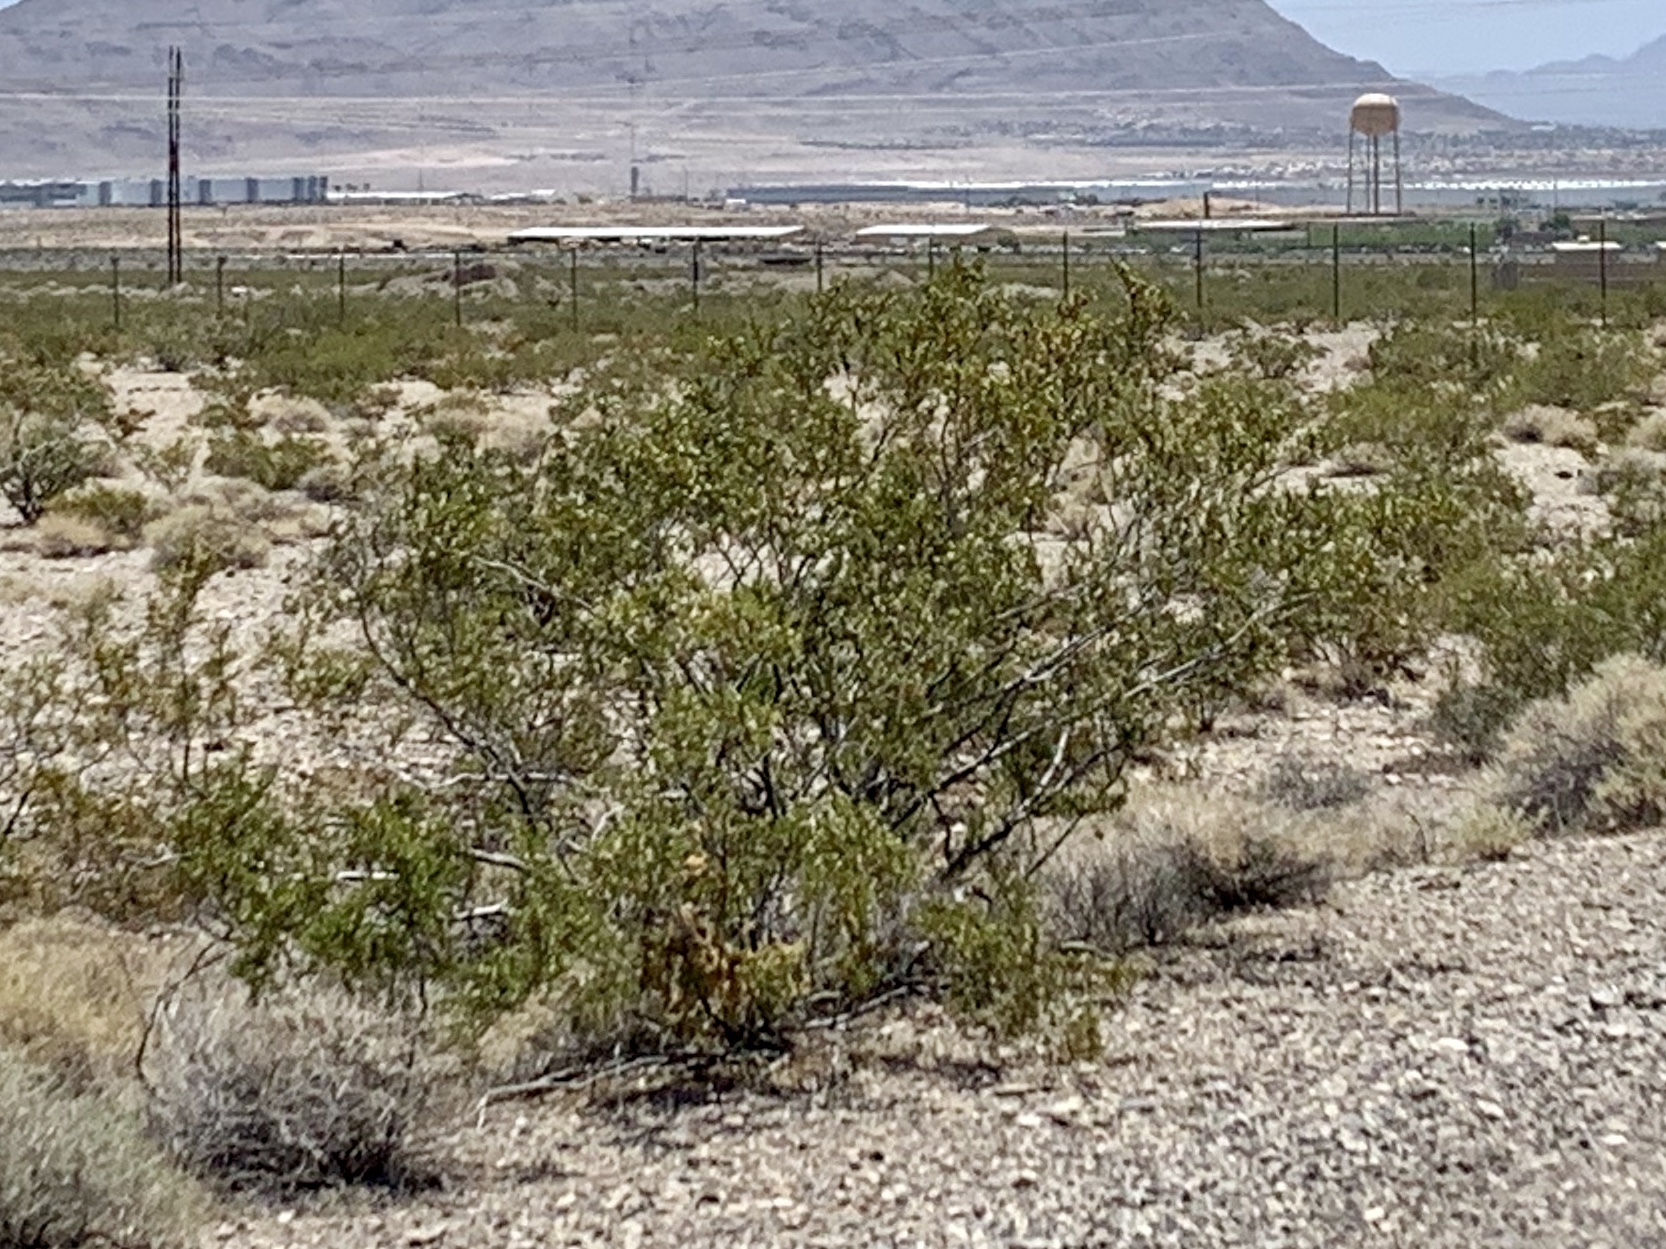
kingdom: Plantae
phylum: Tracheophyta
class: Magnoliopsida
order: Zygophyllales
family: Zygophyllaceae
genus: Larrea
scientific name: Larrea tridentata
